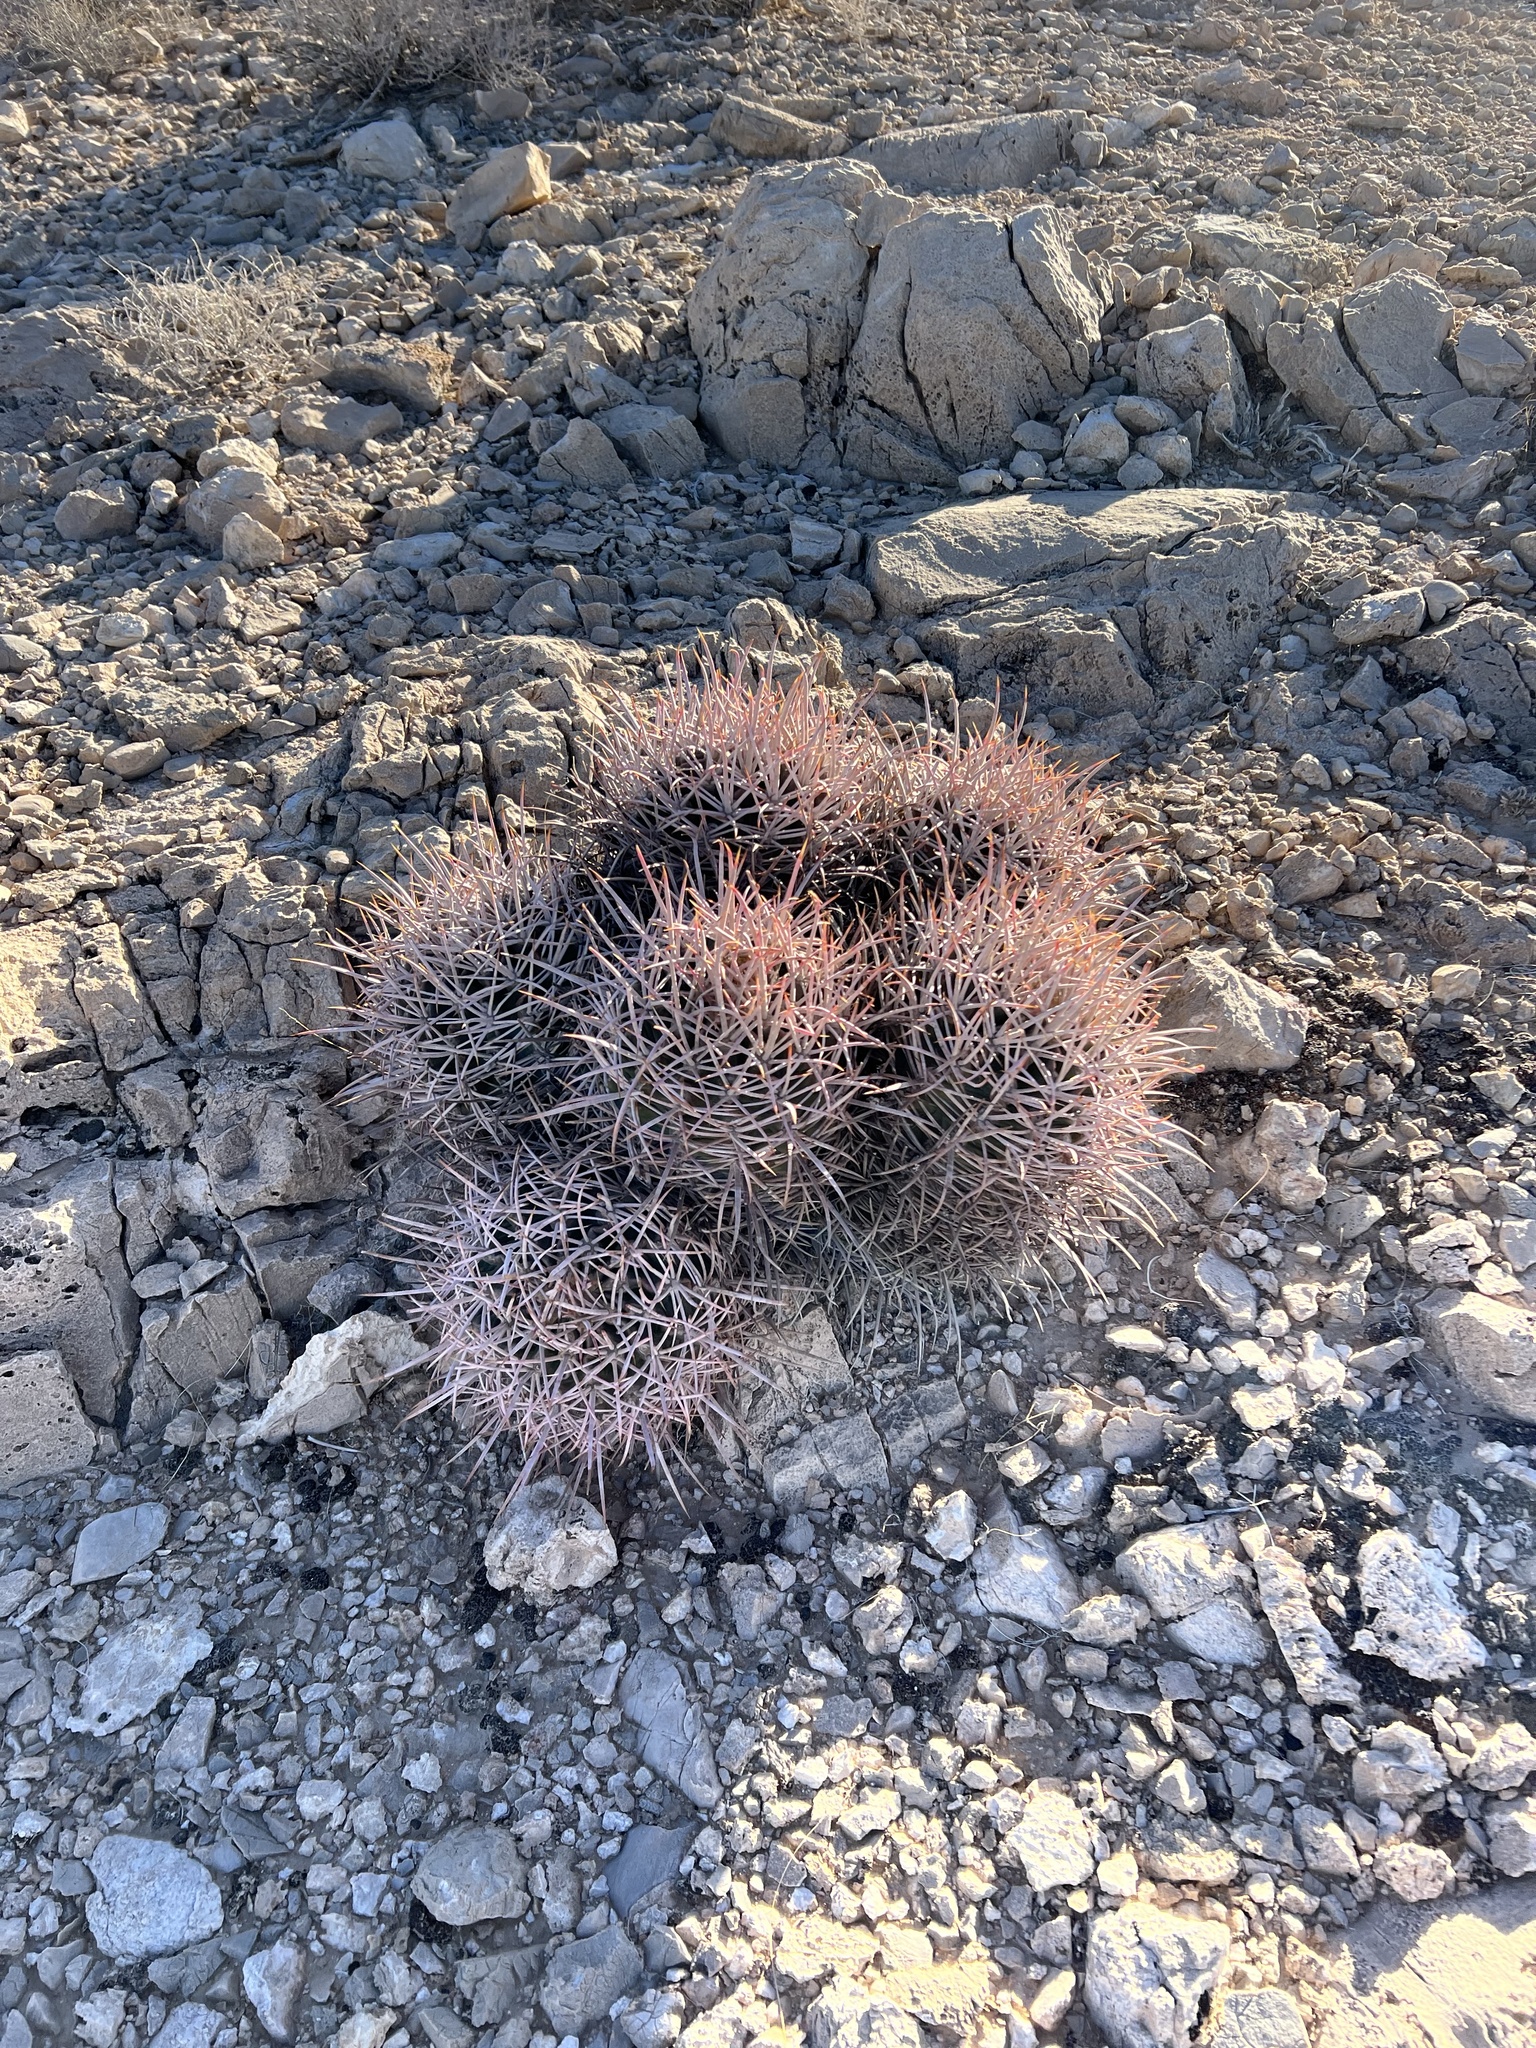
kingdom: Plantae
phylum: Tracheophyta
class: Magnoliopsida
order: Caryophyllales
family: Cactaceae
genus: Echinocactus
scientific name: Echinocactus polycephalus
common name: Cottontop cactus
